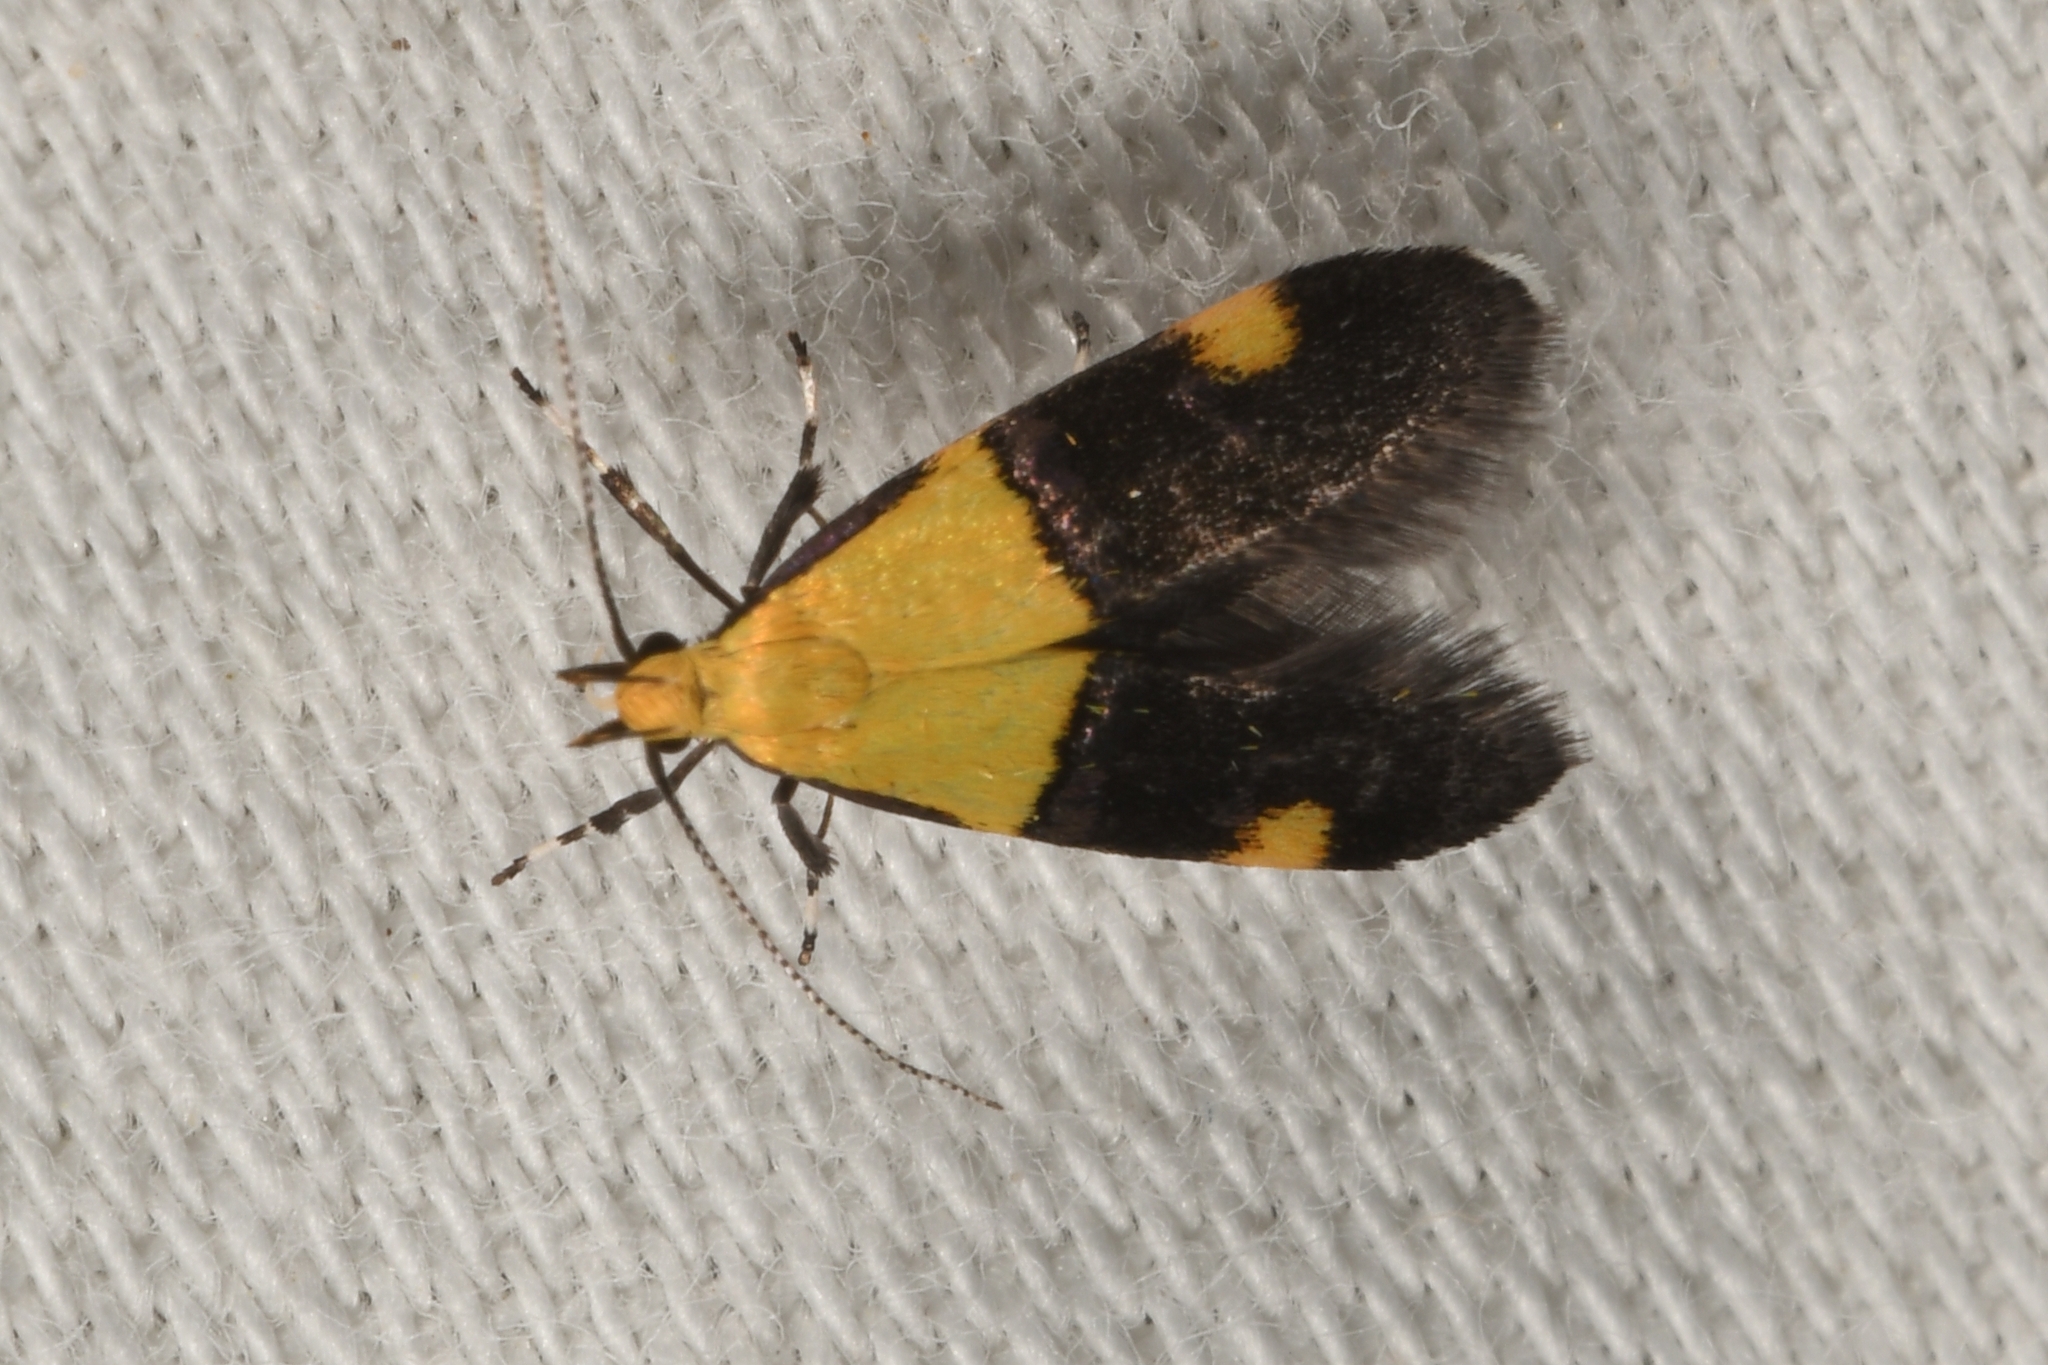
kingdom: Animalia
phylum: Arthropoda
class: Insecta
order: Lepidoptera
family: Oecophoridae
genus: Oecophora
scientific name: Oecophora bractella
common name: Gold-base tubic
